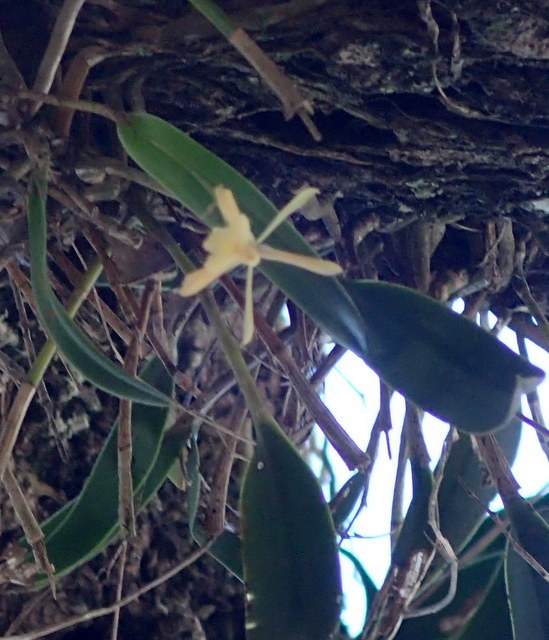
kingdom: Plantae
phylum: Tracheophyta
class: Liliopsida
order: Asparagales
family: Orchidaceae
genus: Epidendrum
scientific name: Epidendrum conopseum
